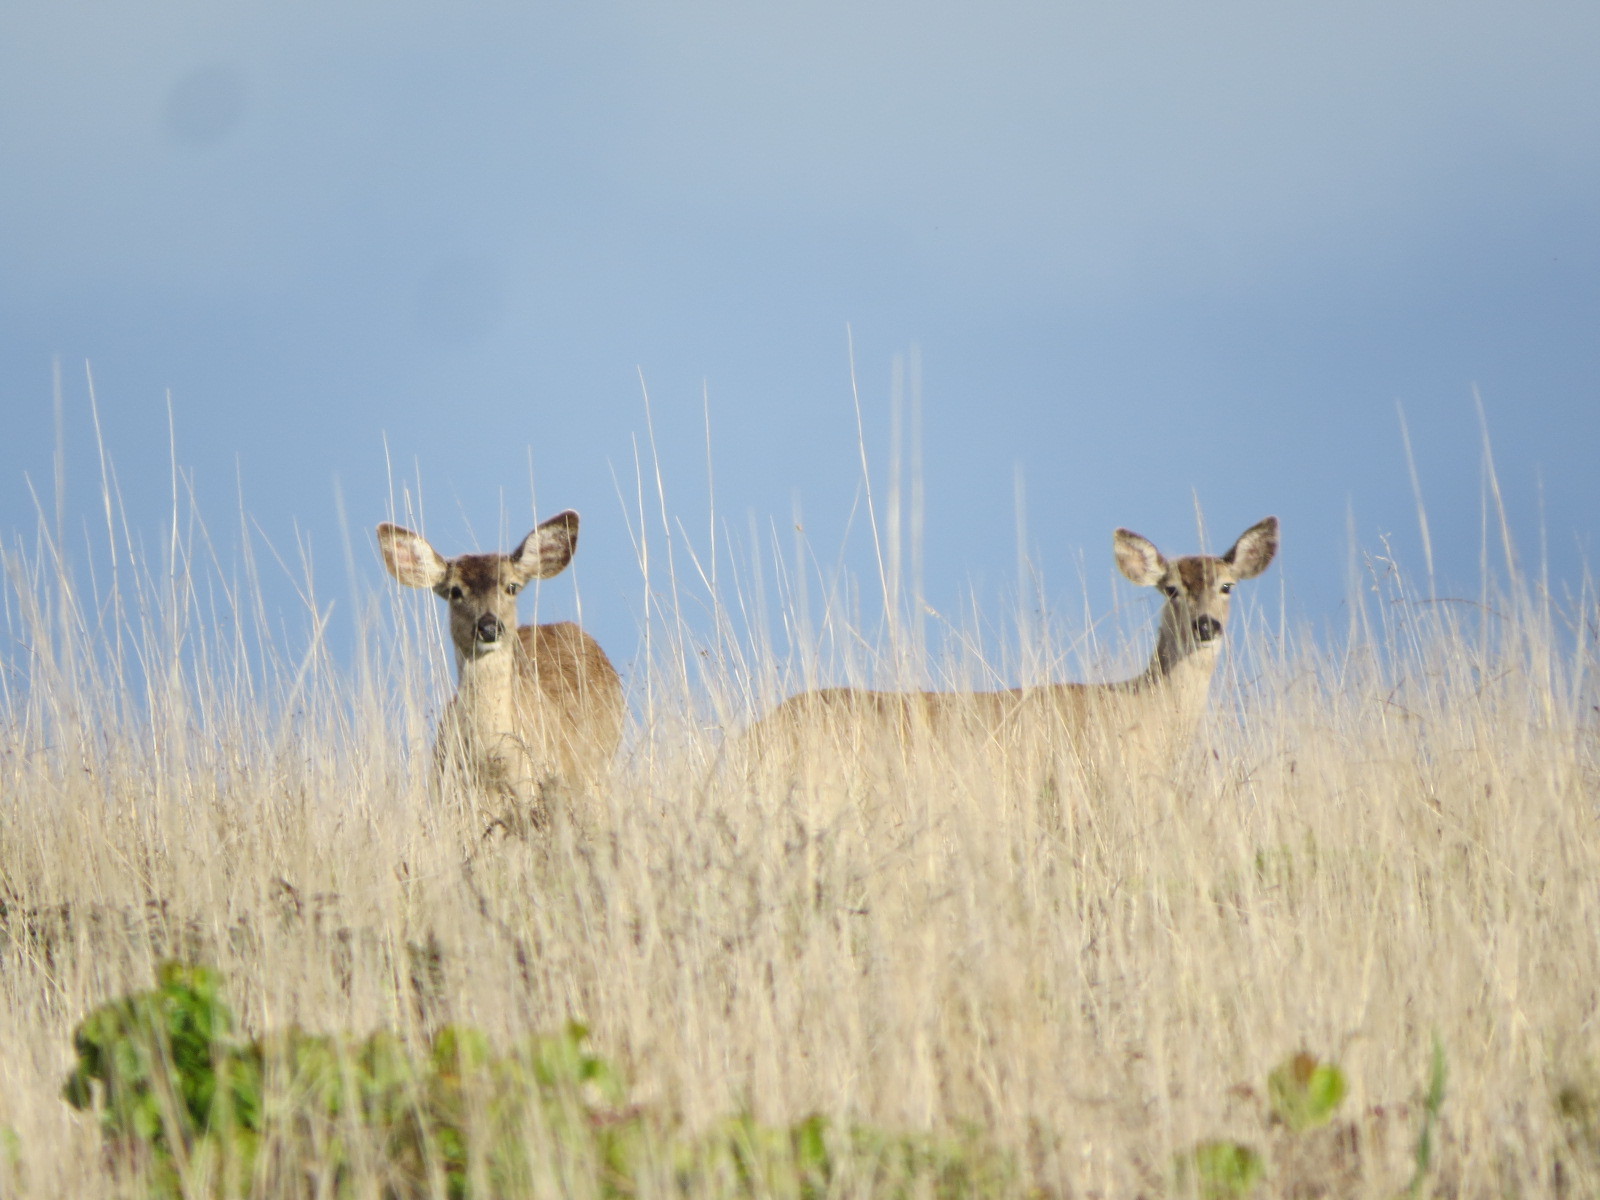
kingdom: Animalia
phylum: Chordata
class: Mammalia
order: Artiodactyla
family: Cervidae
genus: Odocoileus
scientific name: Odocoileus hemionus
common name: Mule deer
